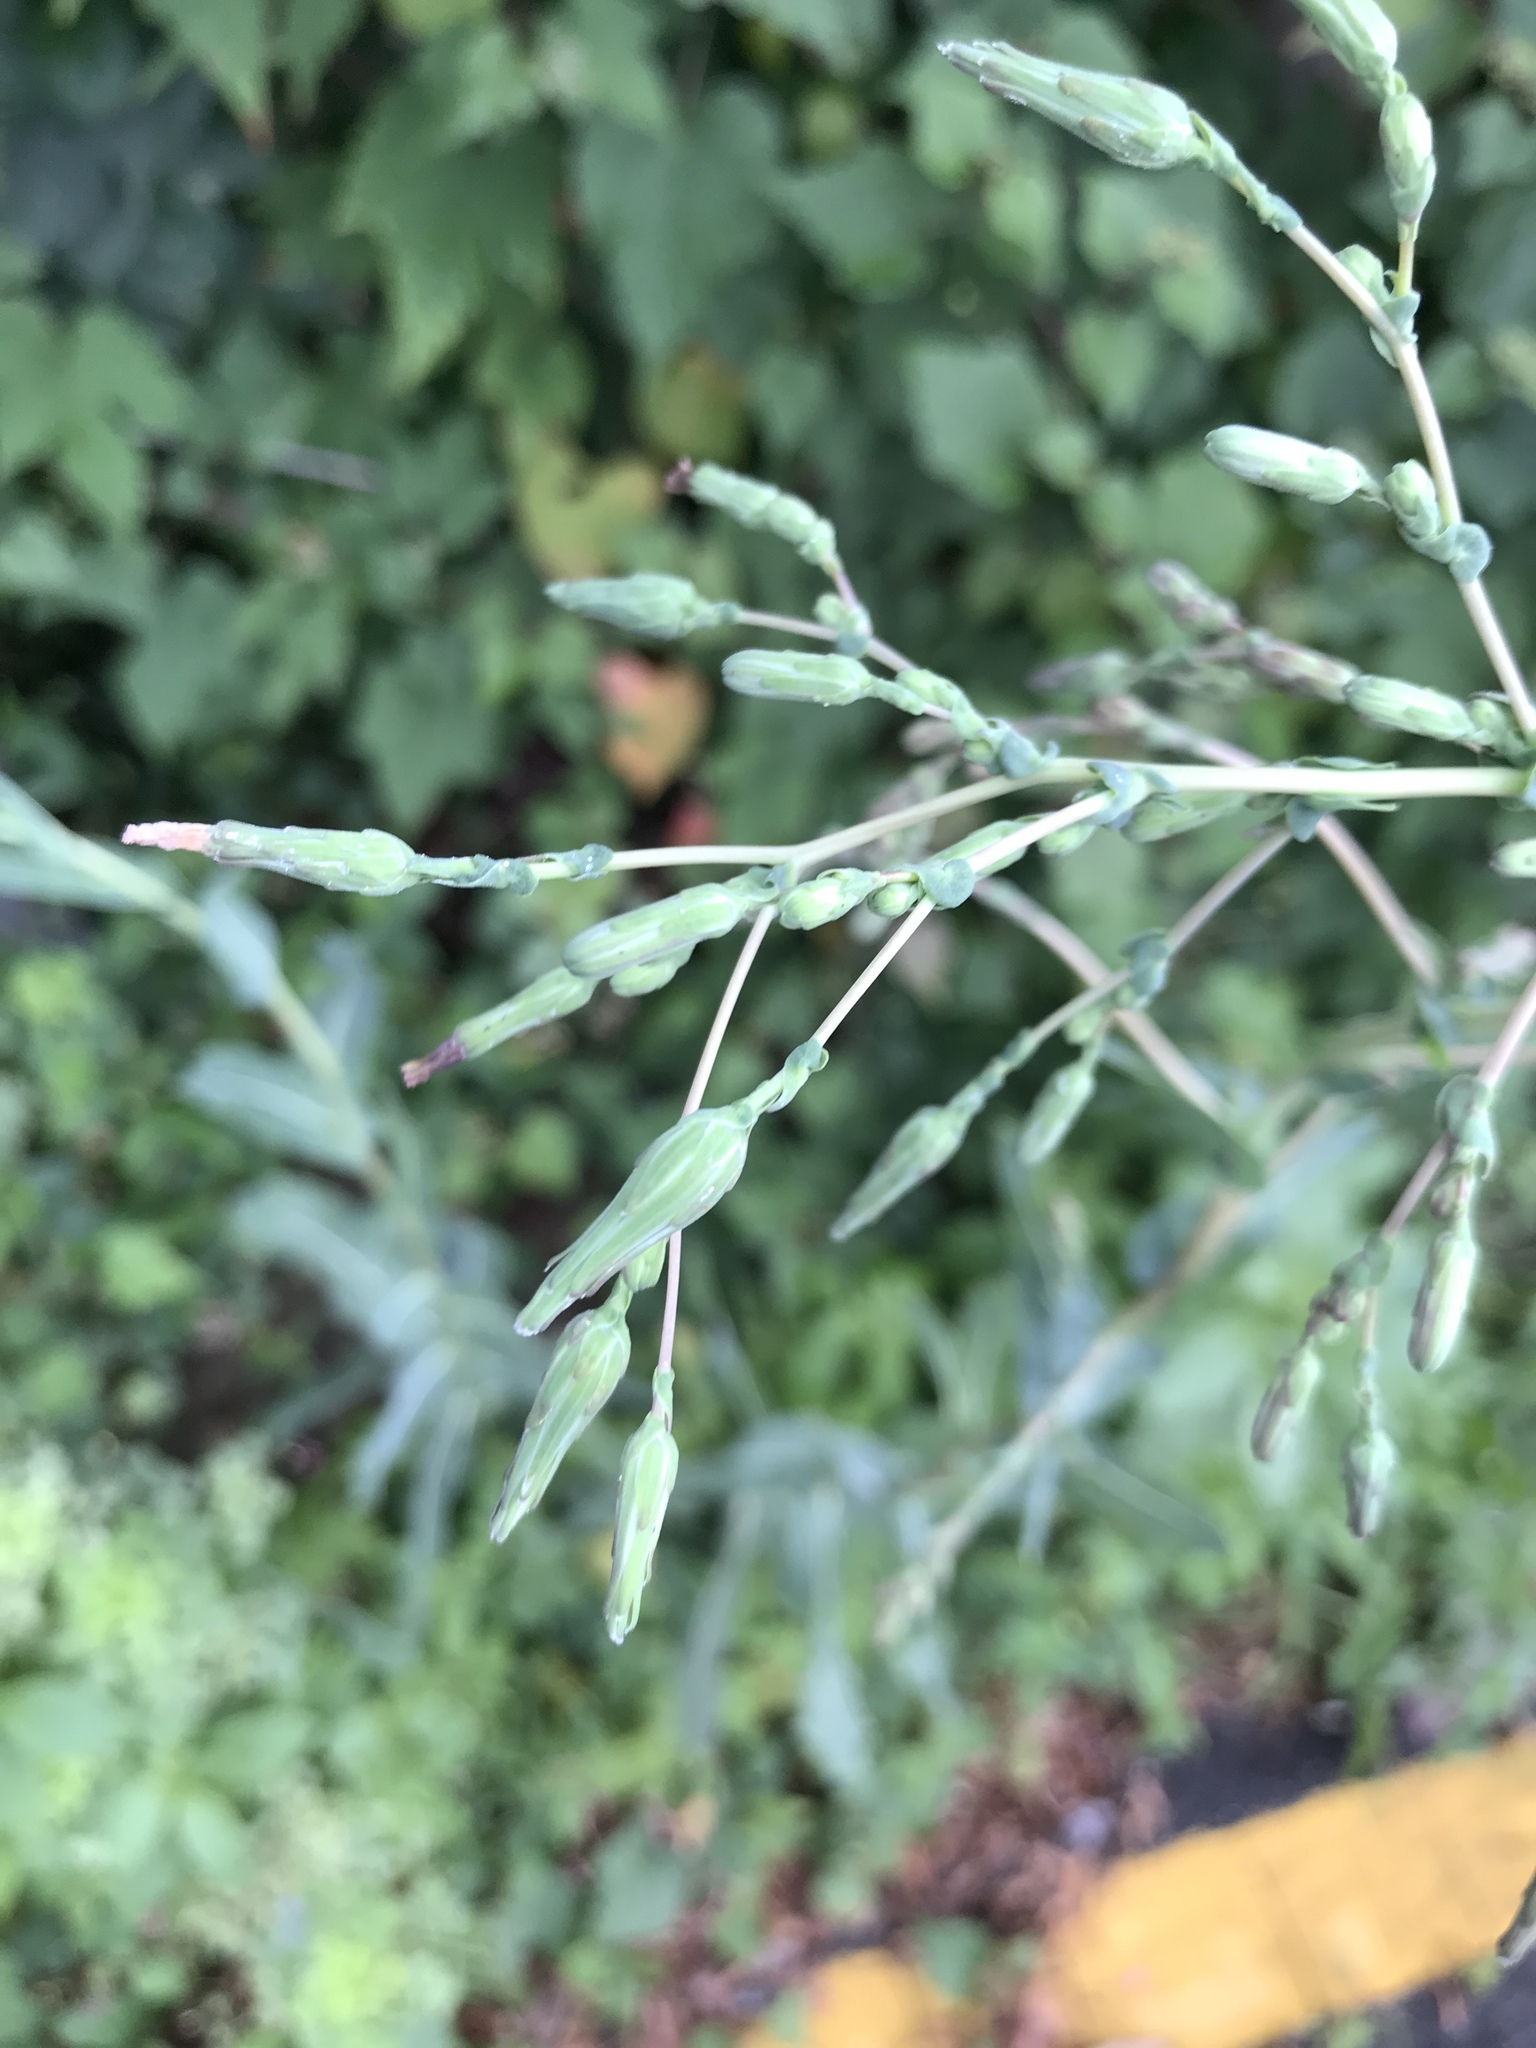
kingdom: Plantae
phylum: Tracheophyta
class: Magnoliopsida
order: Asterales
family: Asteraceae
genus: Lactuca
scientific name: Lactuca serriola
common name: Prickly lettuce
